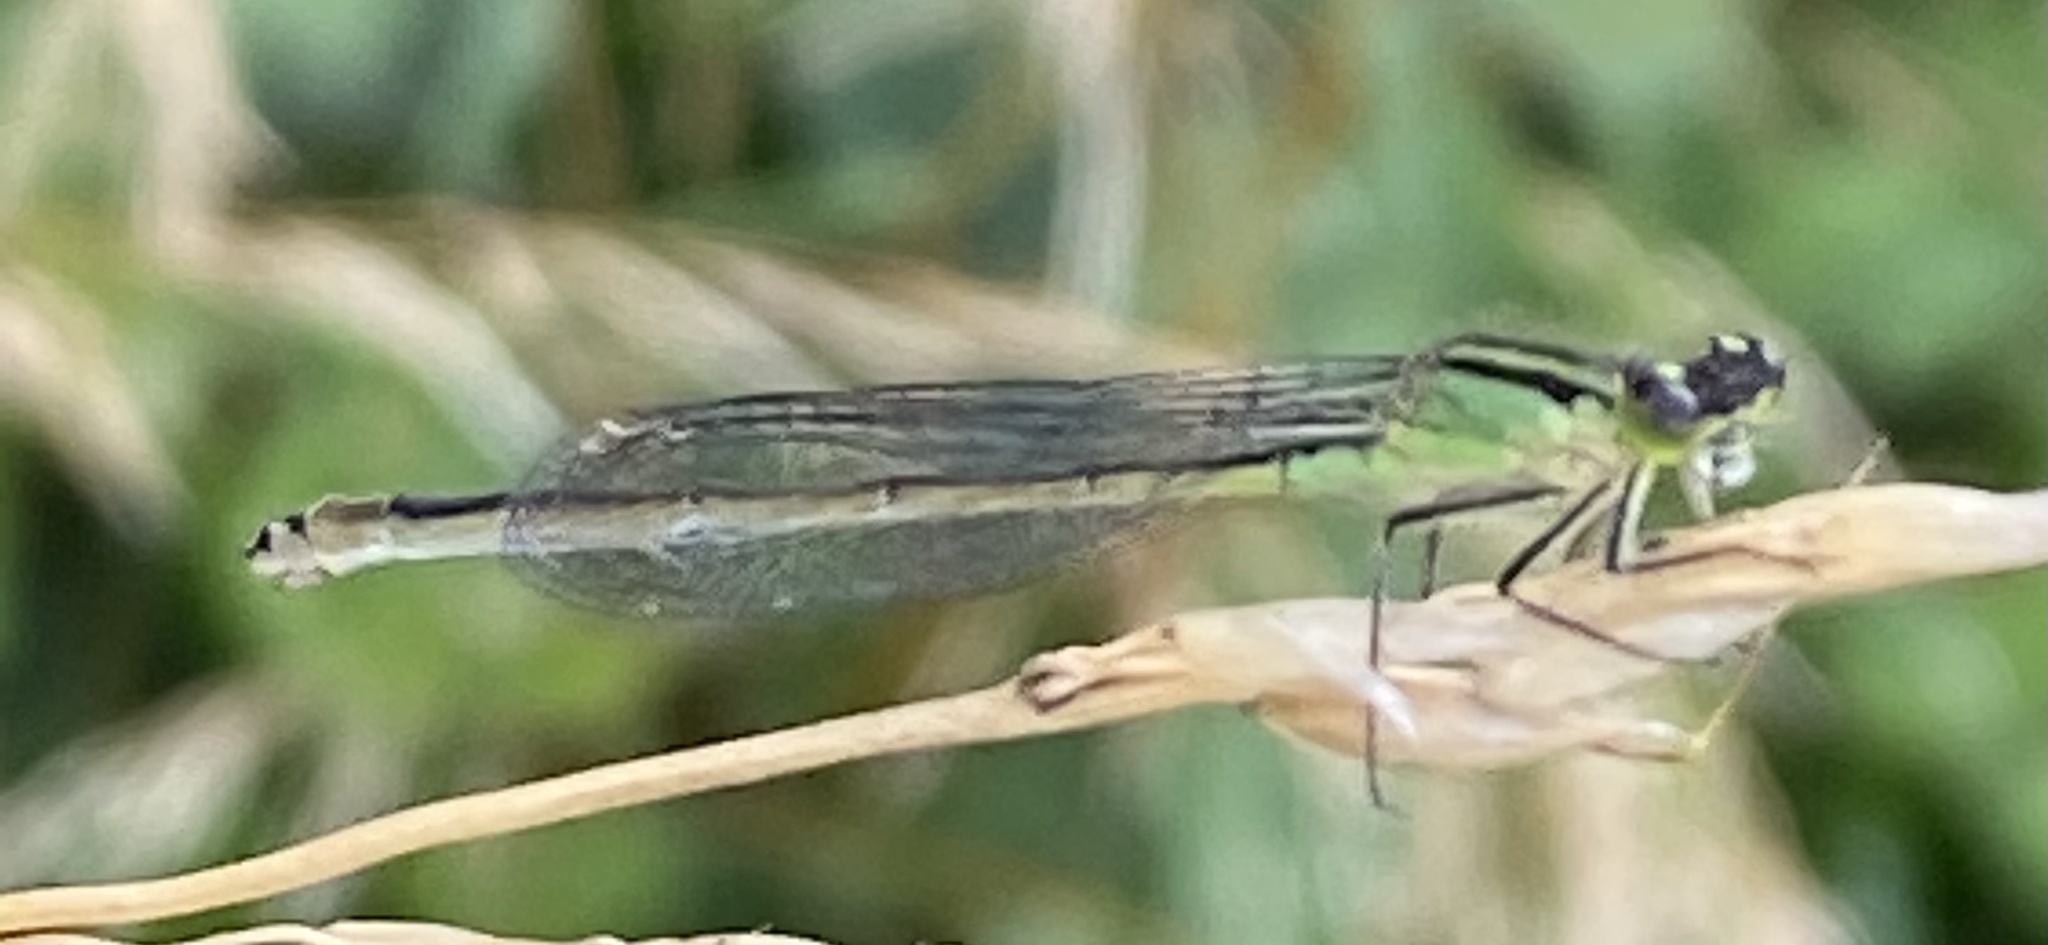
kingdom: Animalia
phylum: Arthropoda
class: Insecta
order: Odonata
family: Coenagrionidae
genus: Ischnura
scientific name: Ischnura elegans
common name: Blue-tailed damselfly
